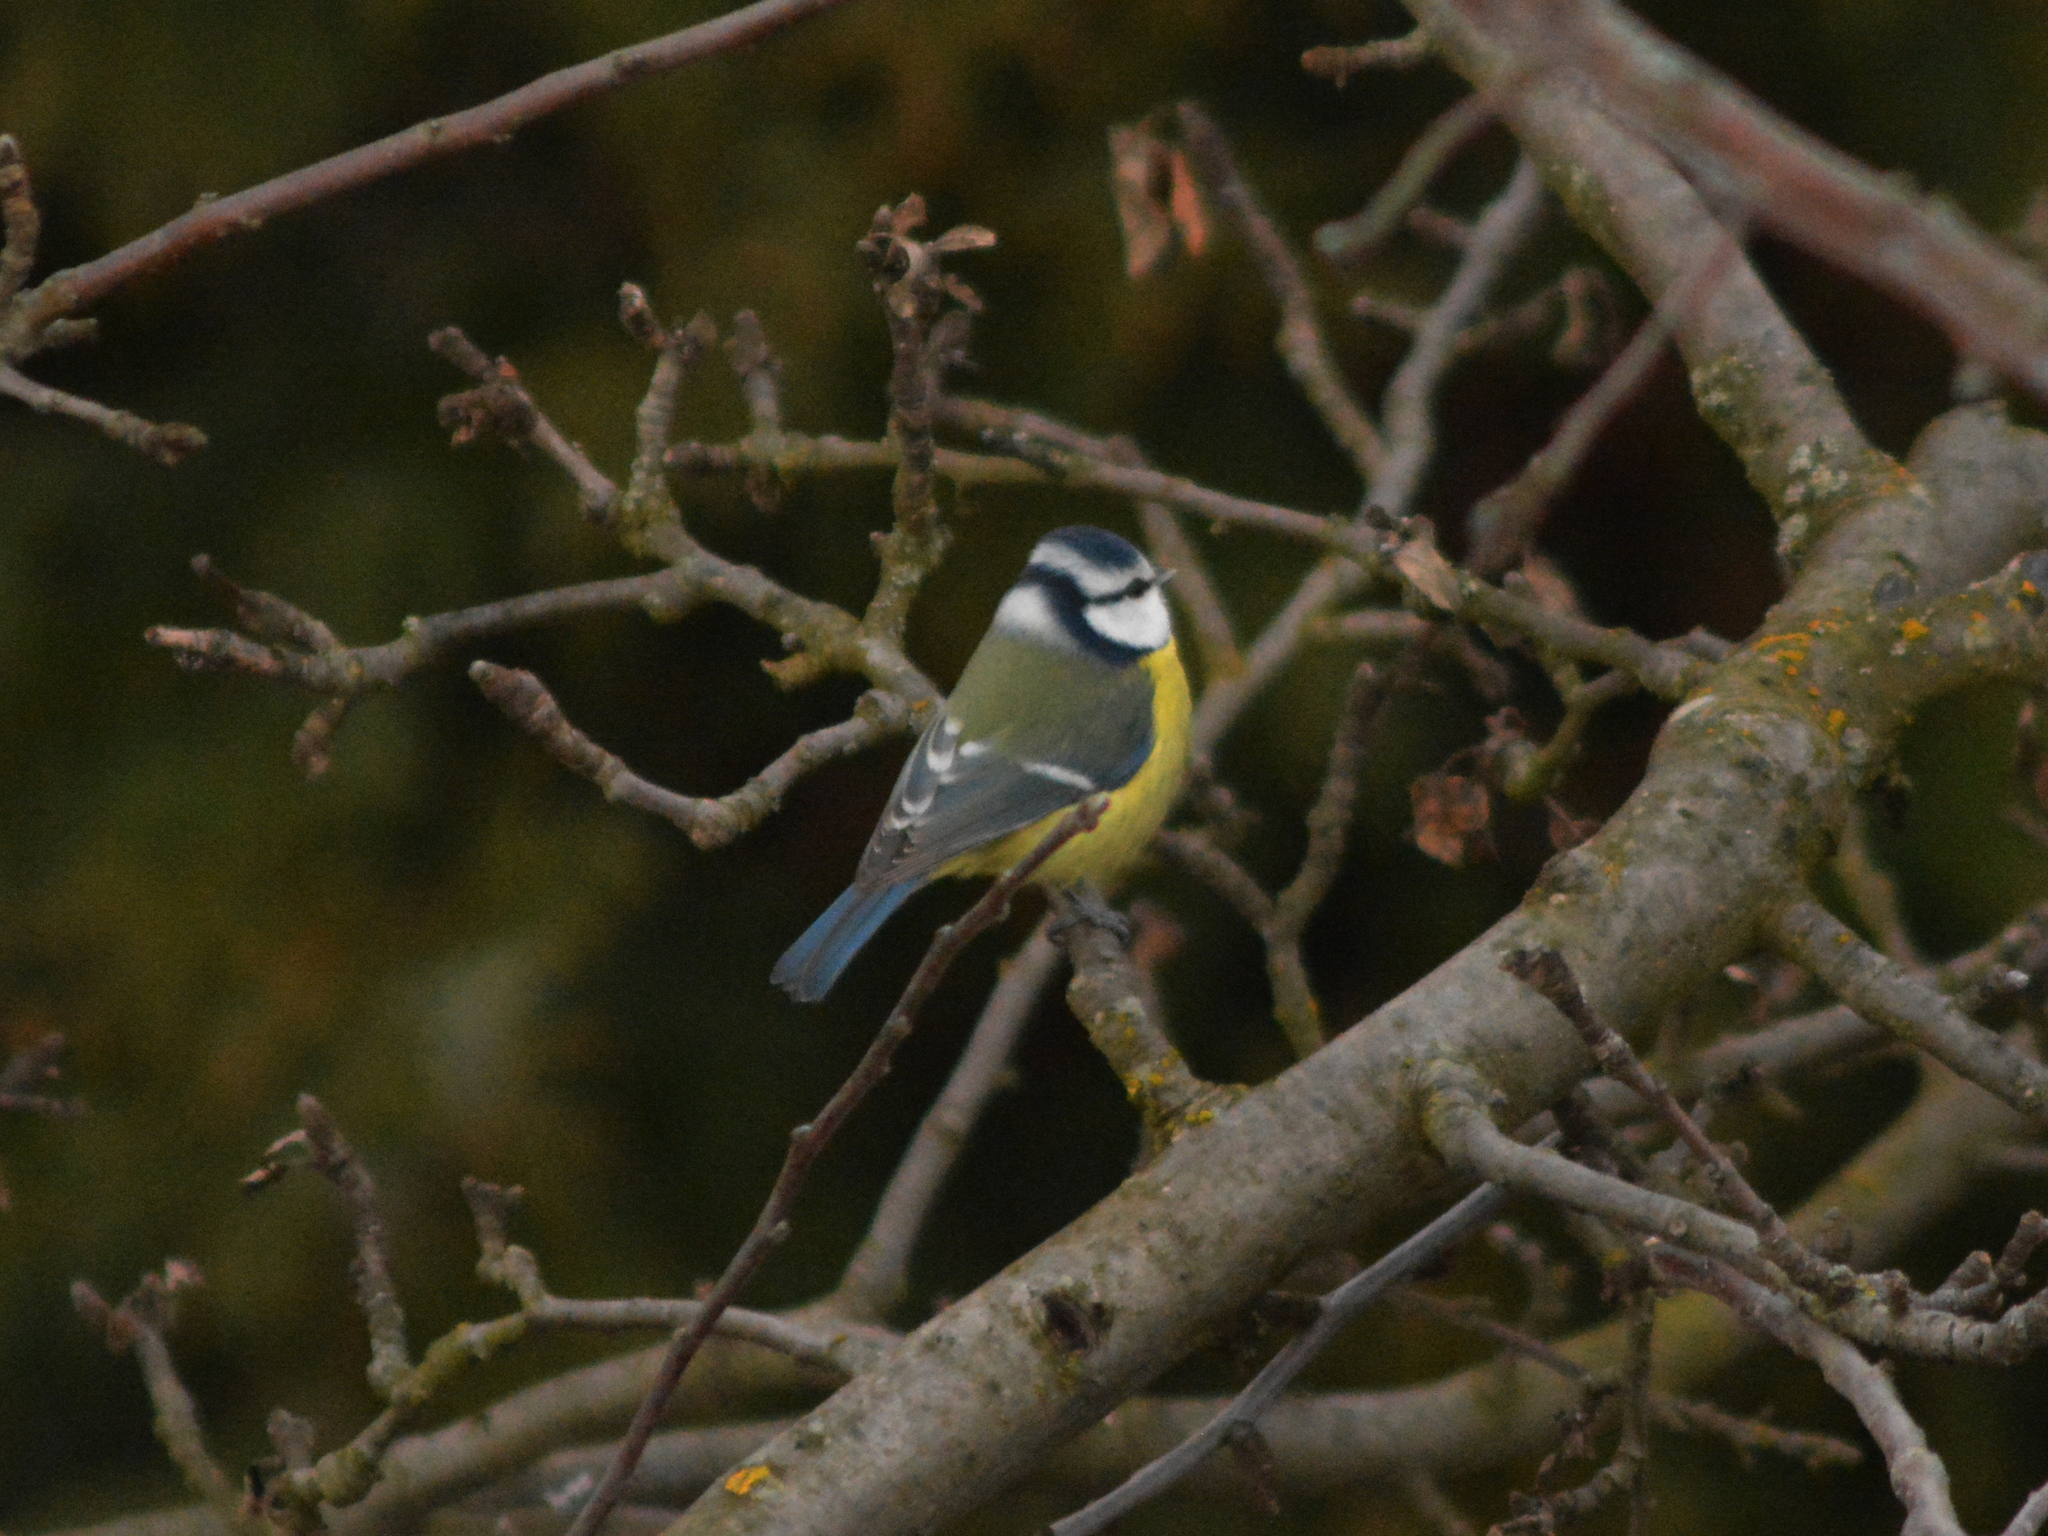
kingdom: Animalia
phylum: Chordata
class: Aves
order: Passeriformes
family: Paridae
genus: Cyanistes
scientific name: Cyanistes caeruleus
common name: Eurasian blue tit
